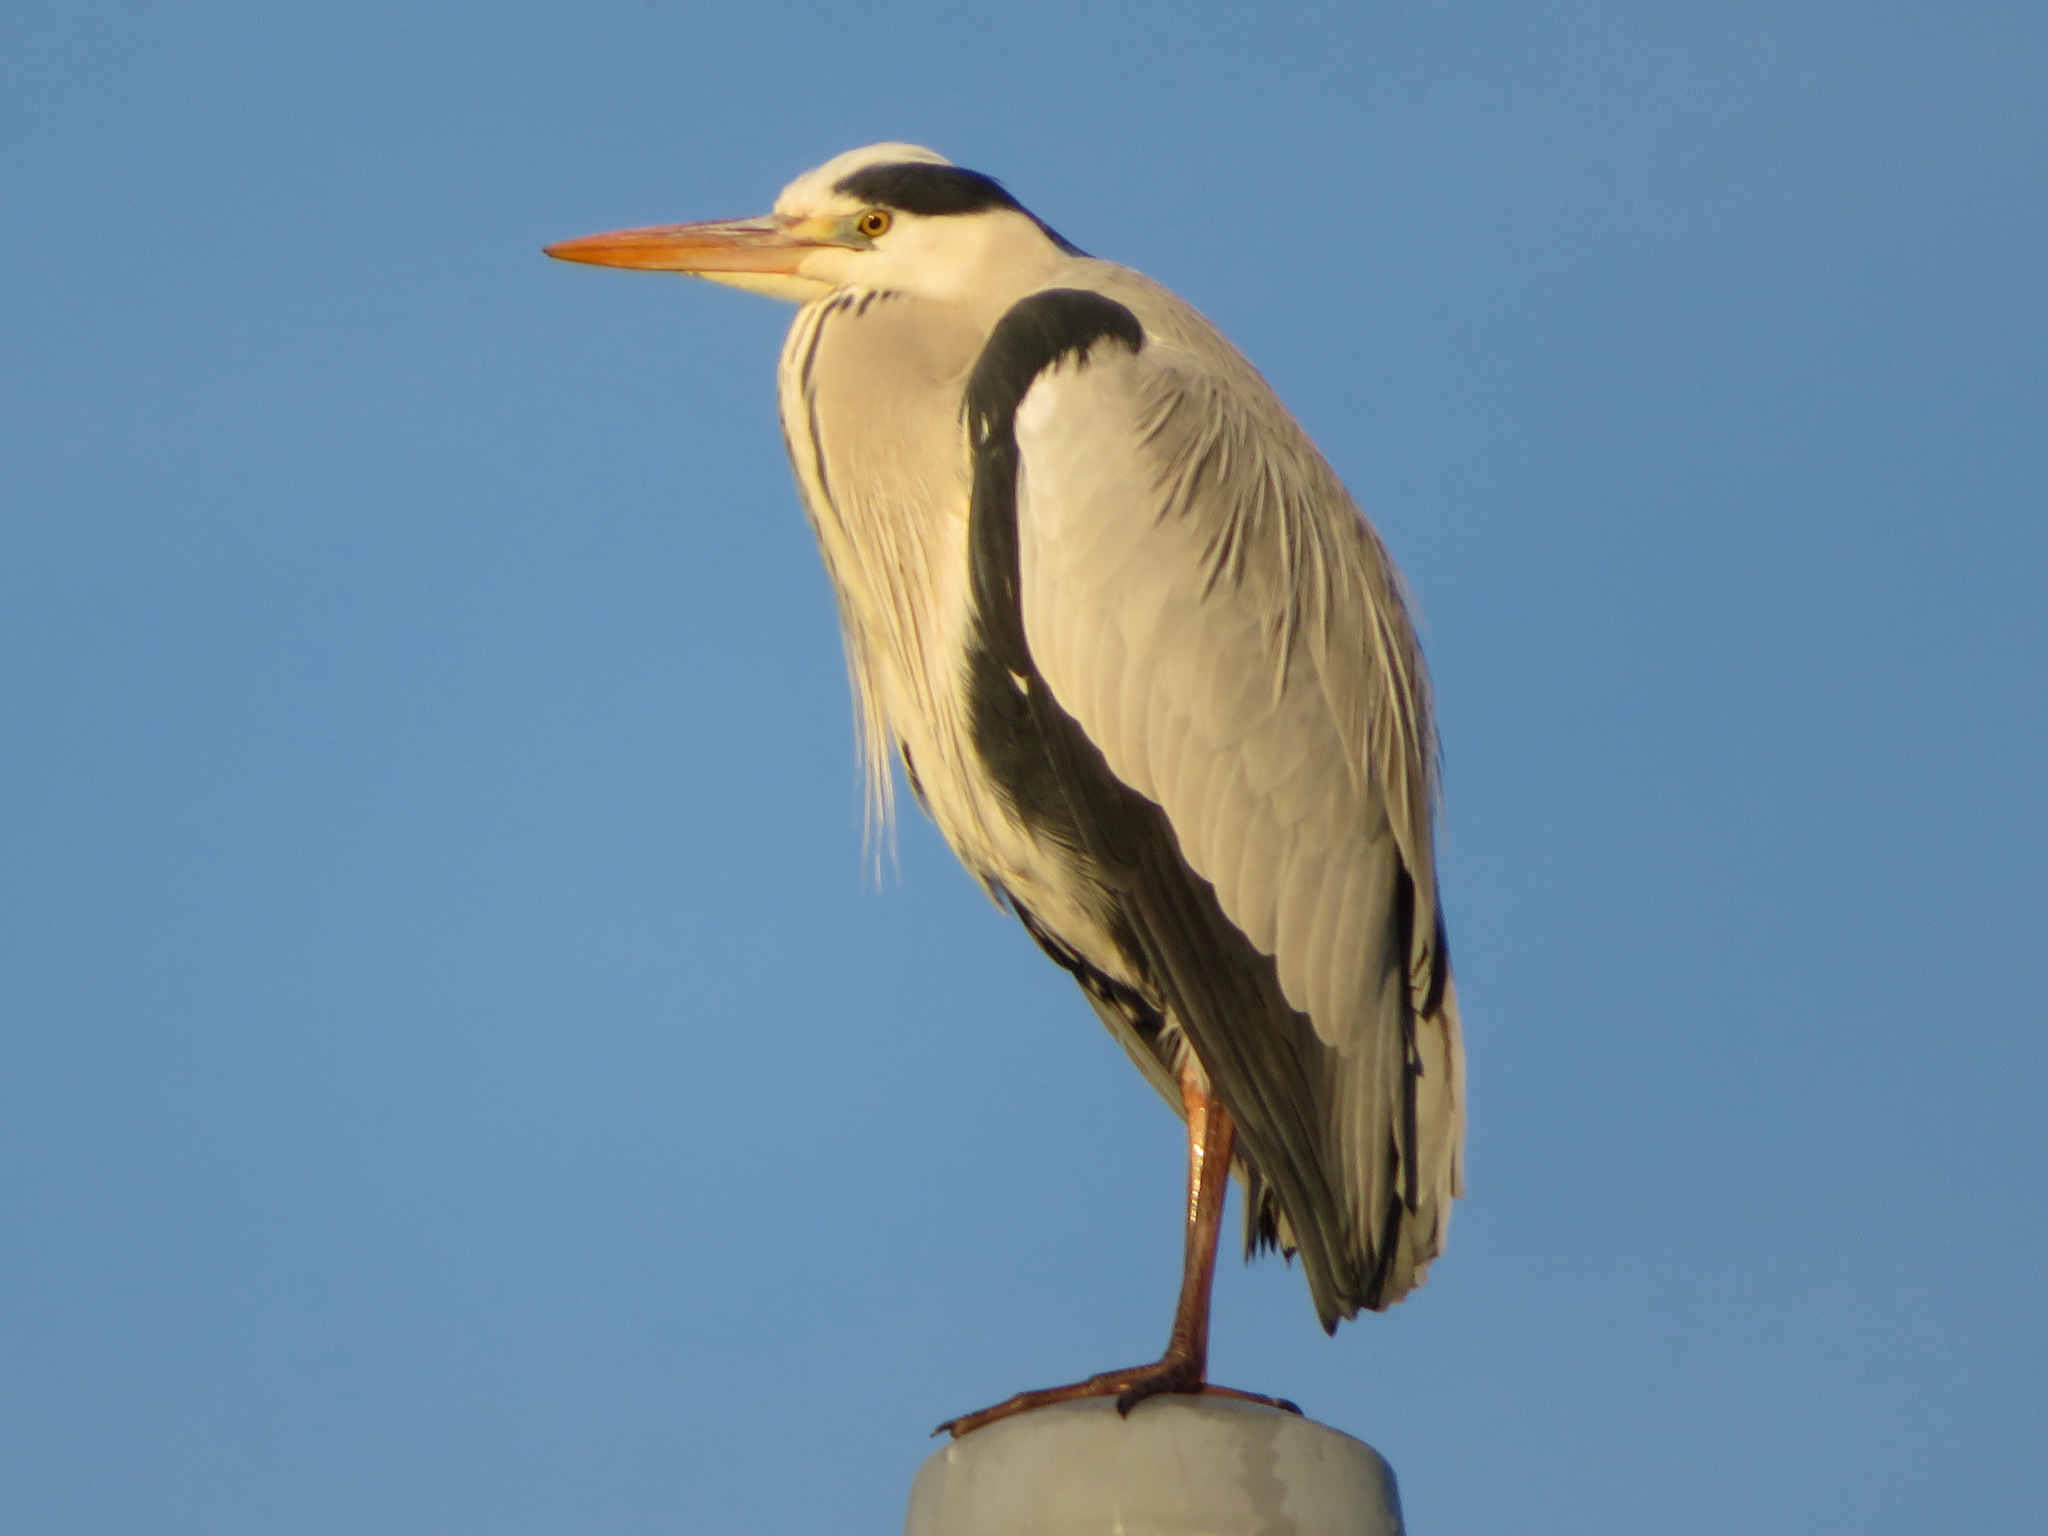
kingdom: Animalia
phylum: Chordata
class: Aves
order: Pelecaniformes
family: Ardeidae
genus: Ardea
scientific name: Ardea cinerea
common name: Grey heron
